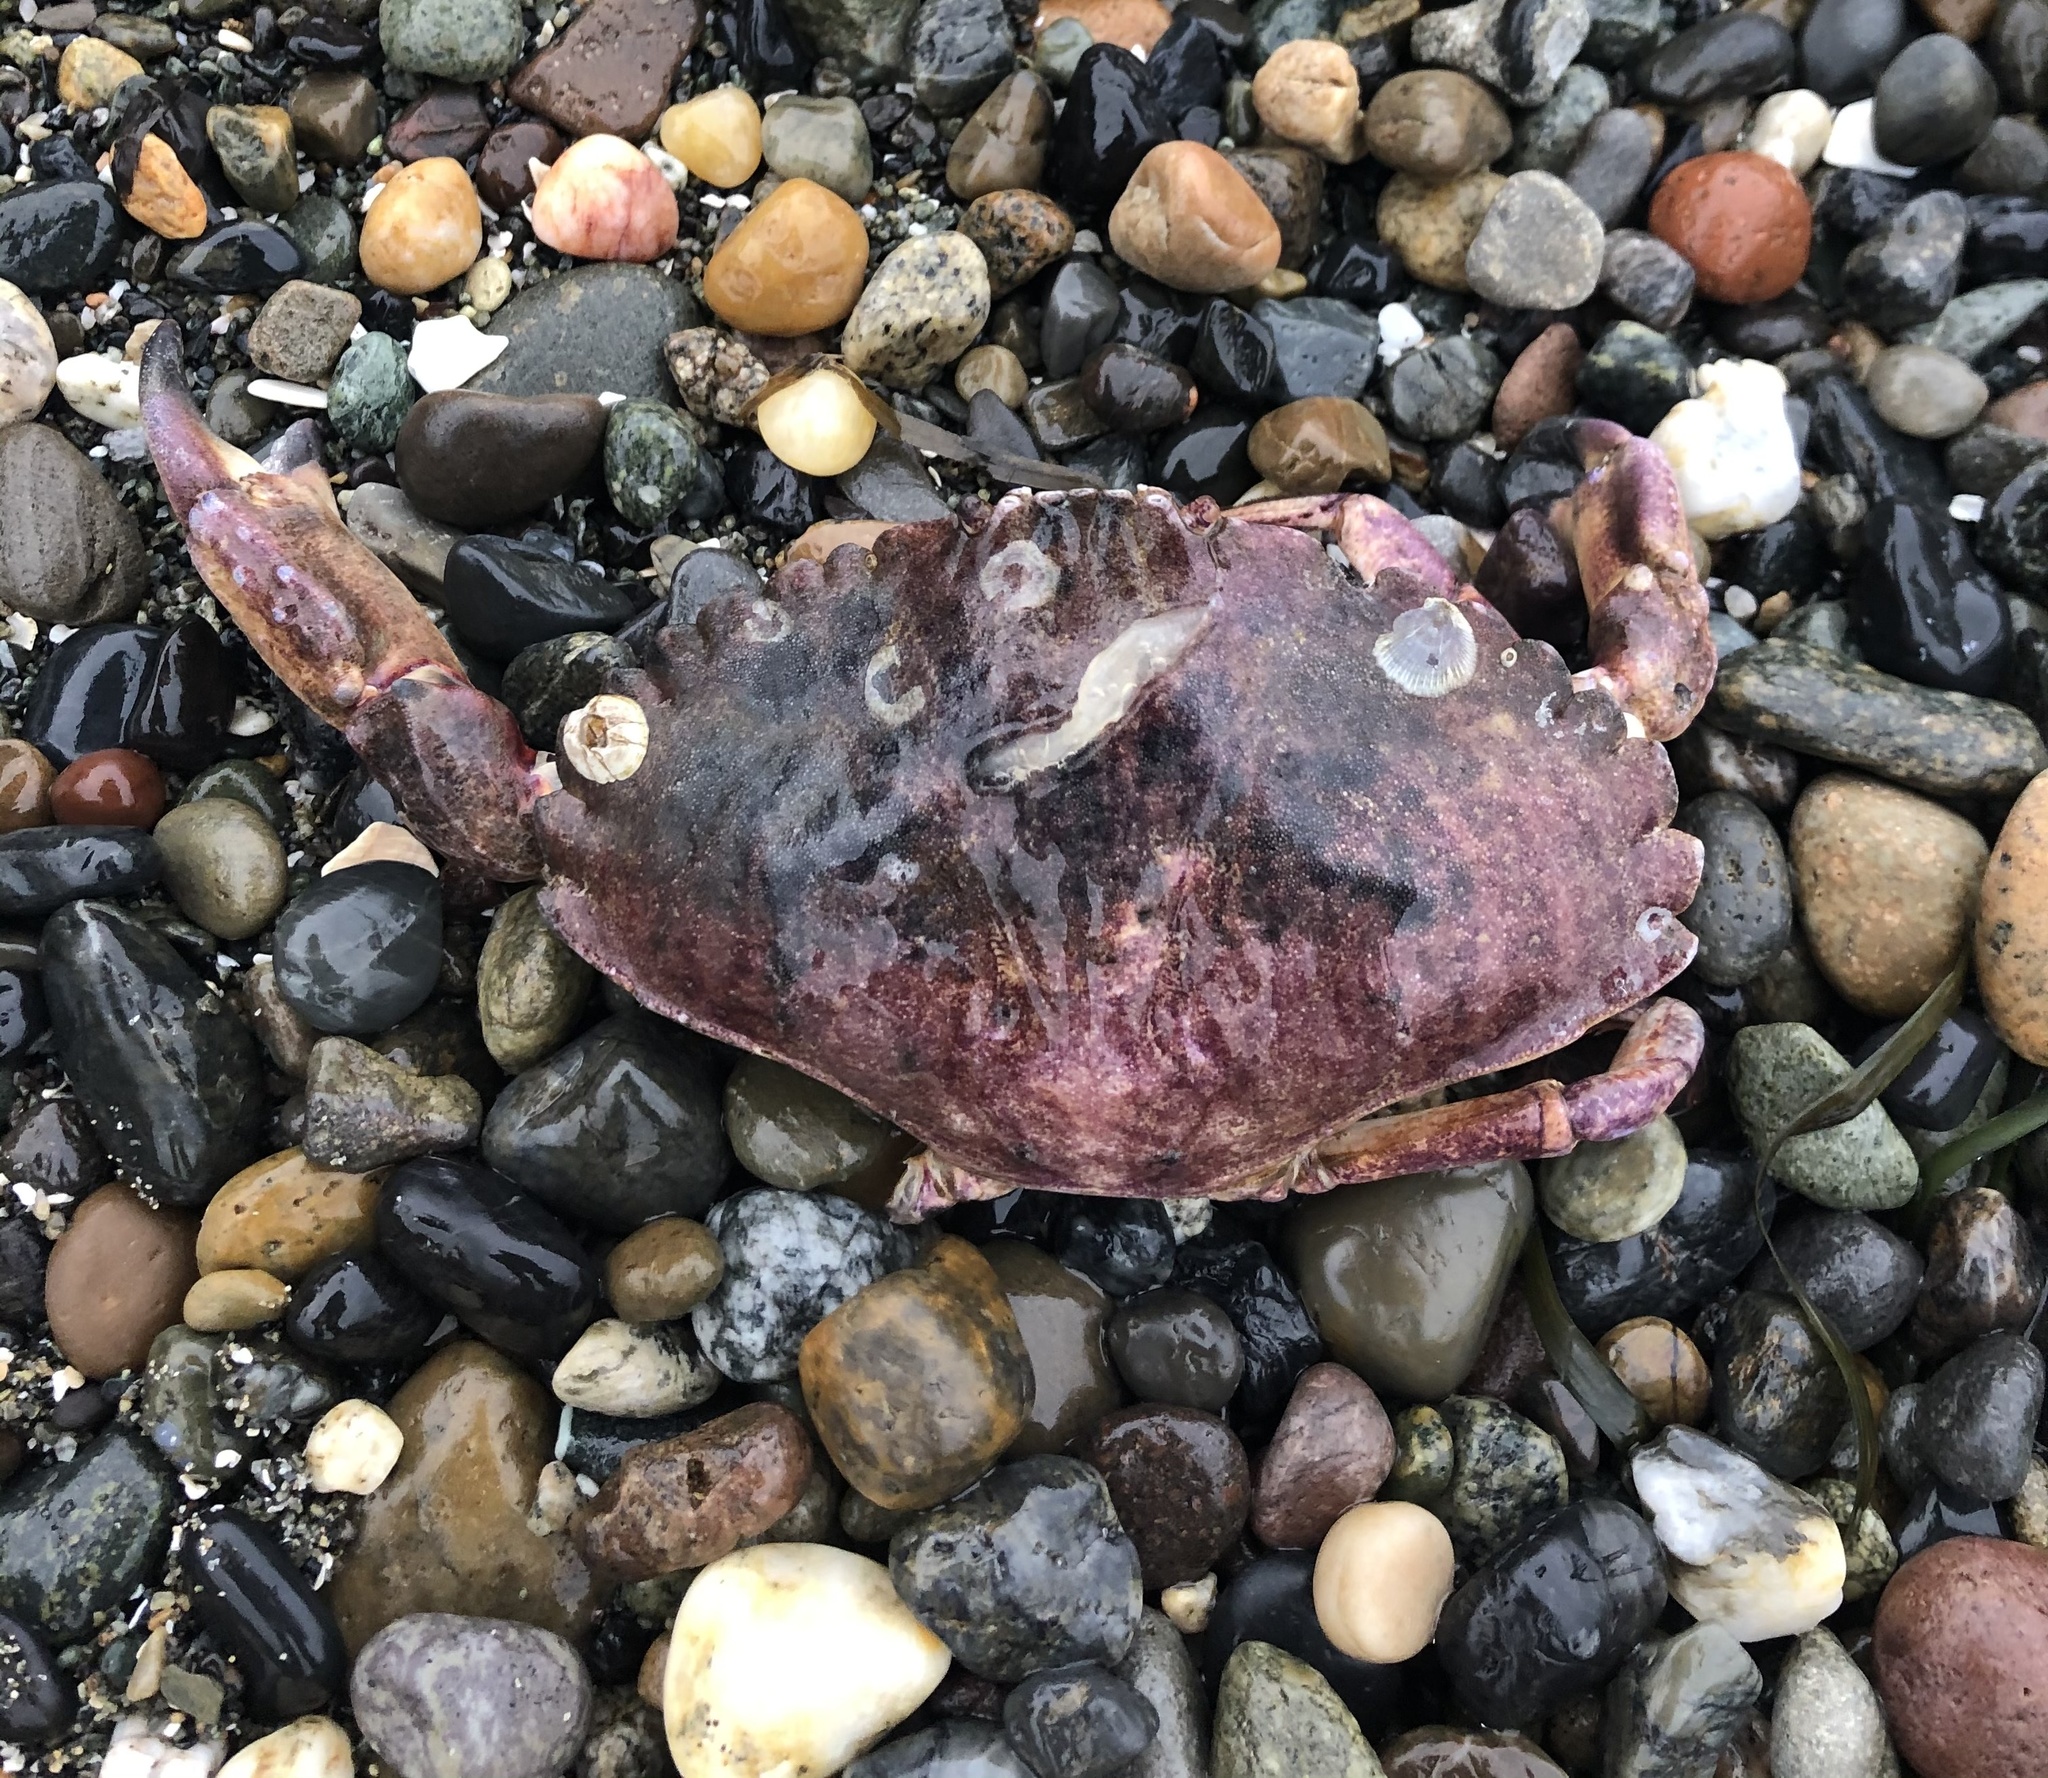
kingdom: Animalia
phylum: Arthropoda
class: Malacostraca
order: Decapoda
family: Cancridae
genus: Cancer
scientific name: Cancer productus
